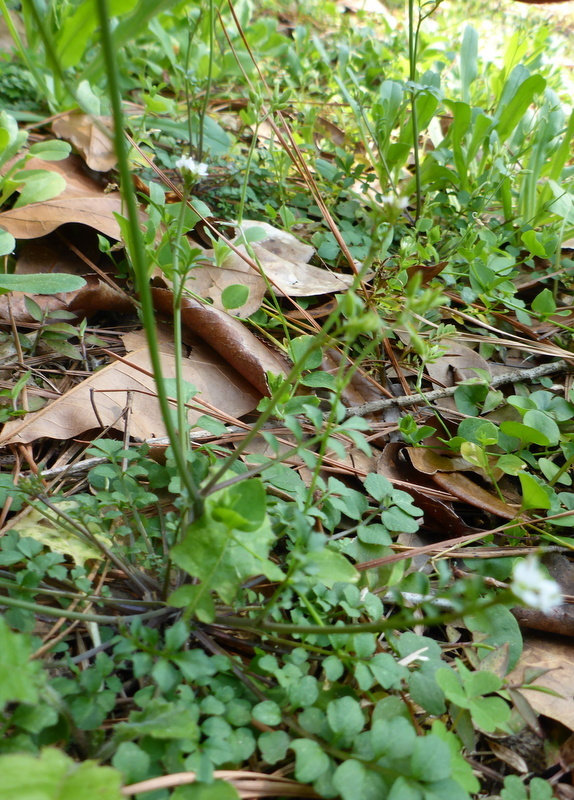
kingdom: Plantae
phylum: Tracheophyta
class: Magnoliopsida
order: Brassicales
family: Brassicaceae
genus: Cardamine
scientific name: Cardamine hirsuta
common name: Hairy bittercress
